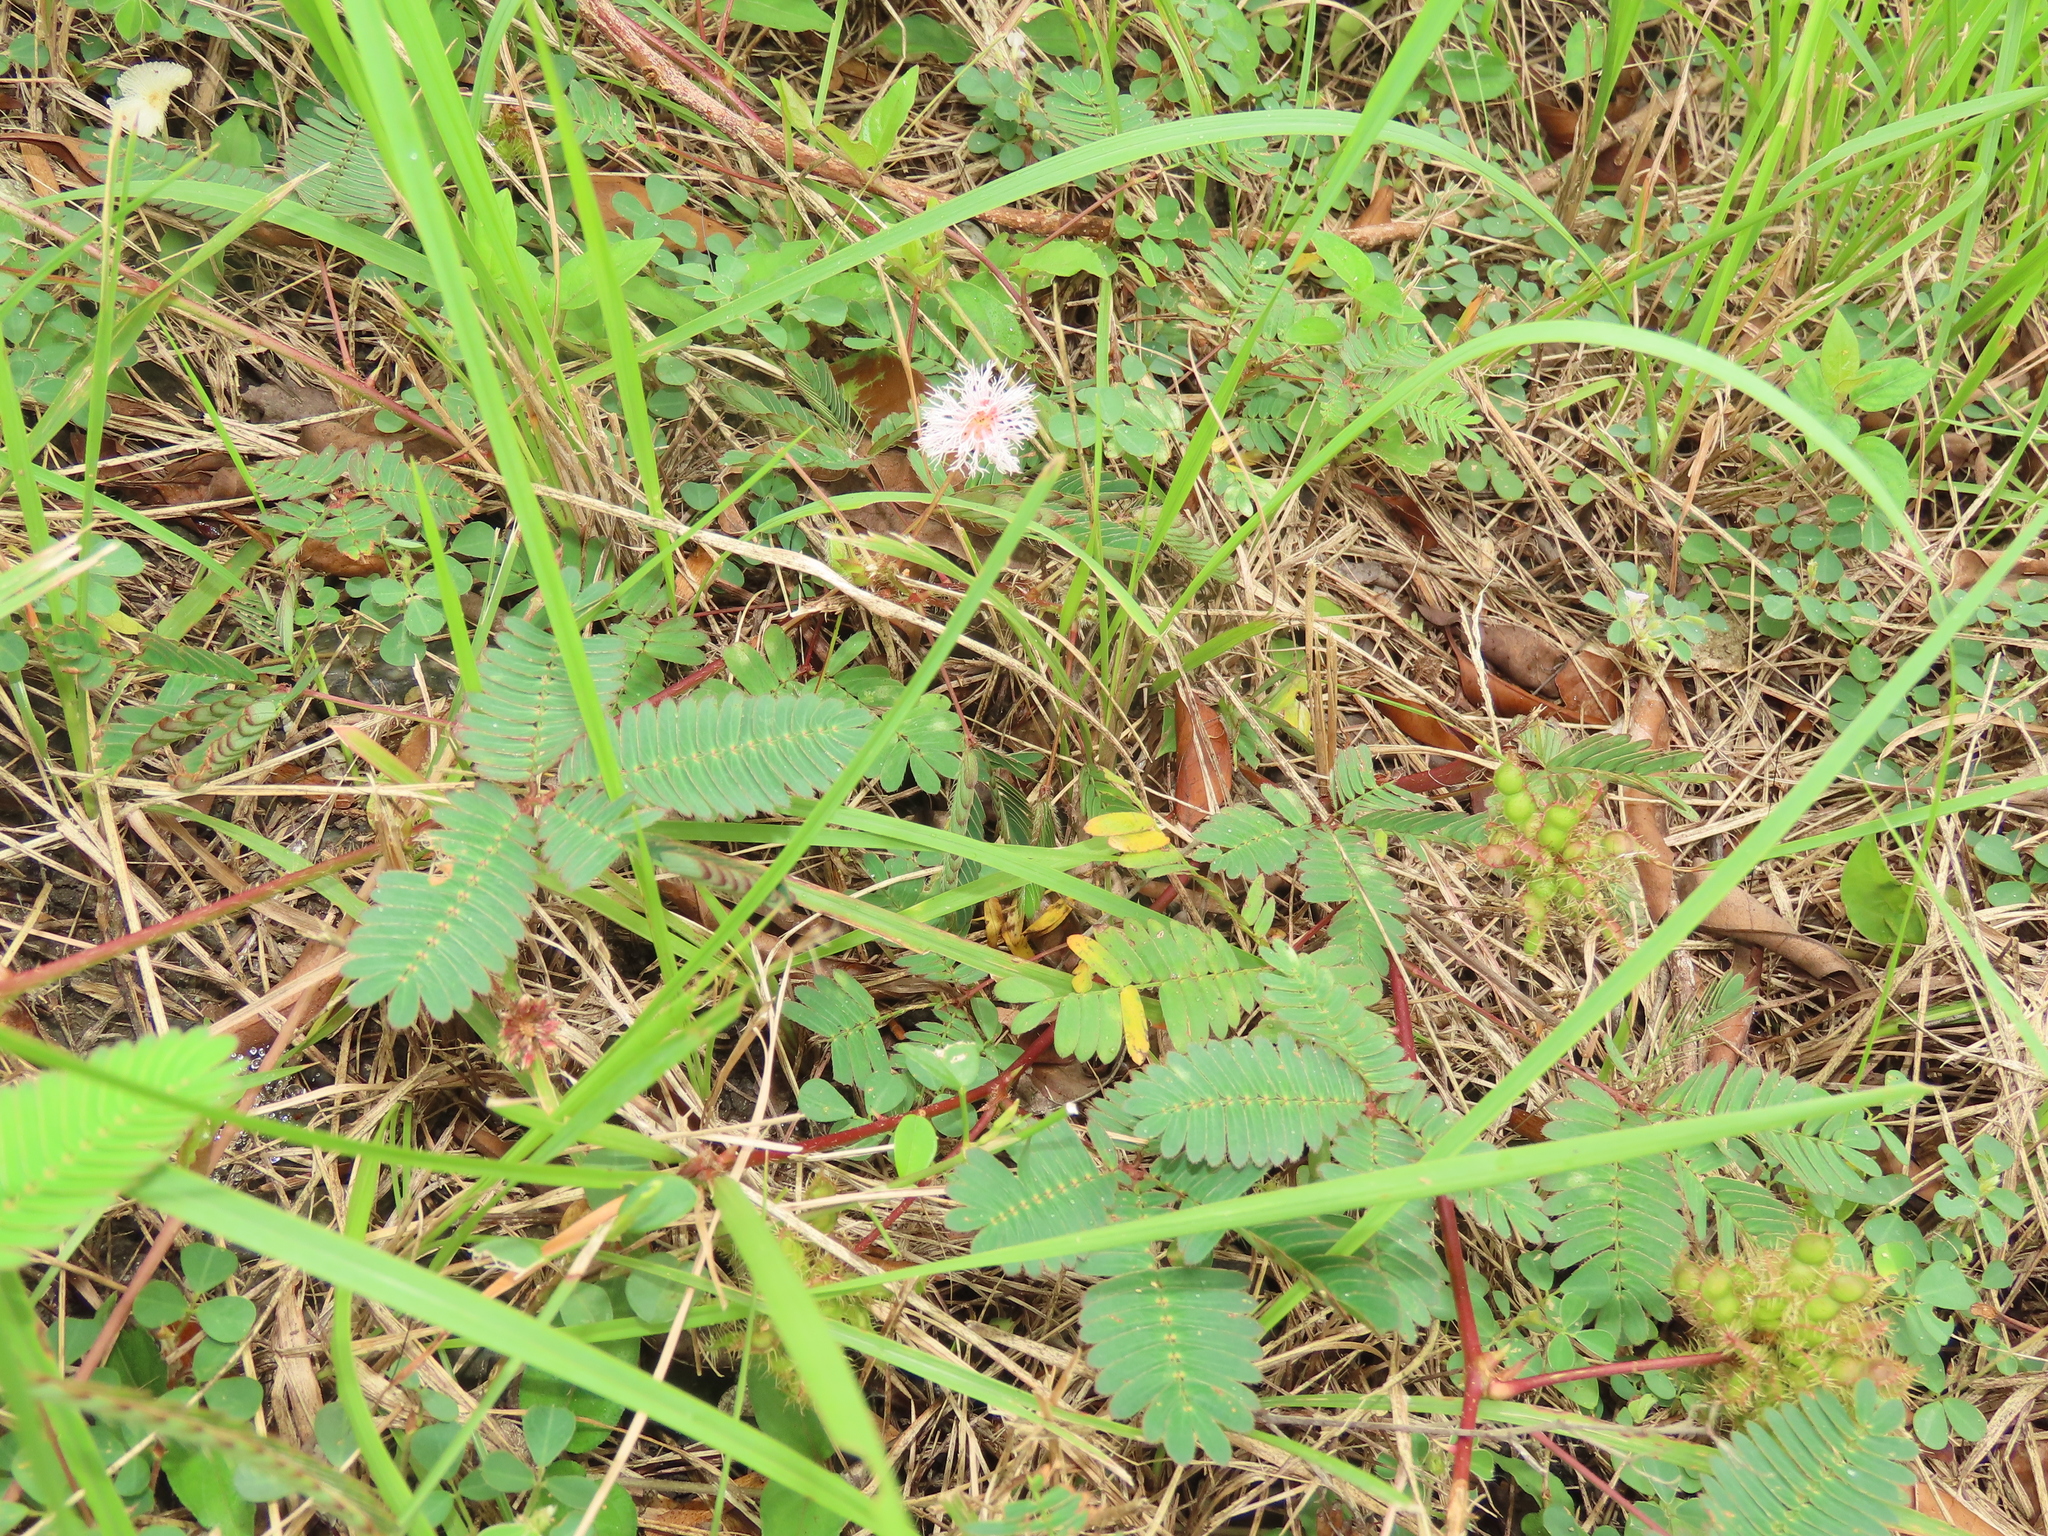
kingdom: Plantae
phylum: Tracheophyta
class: Magnoliopsida
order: Fabales
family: Fabaceae
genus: Mimosa
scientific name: Mimosa pudica
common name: Sensitive plant
